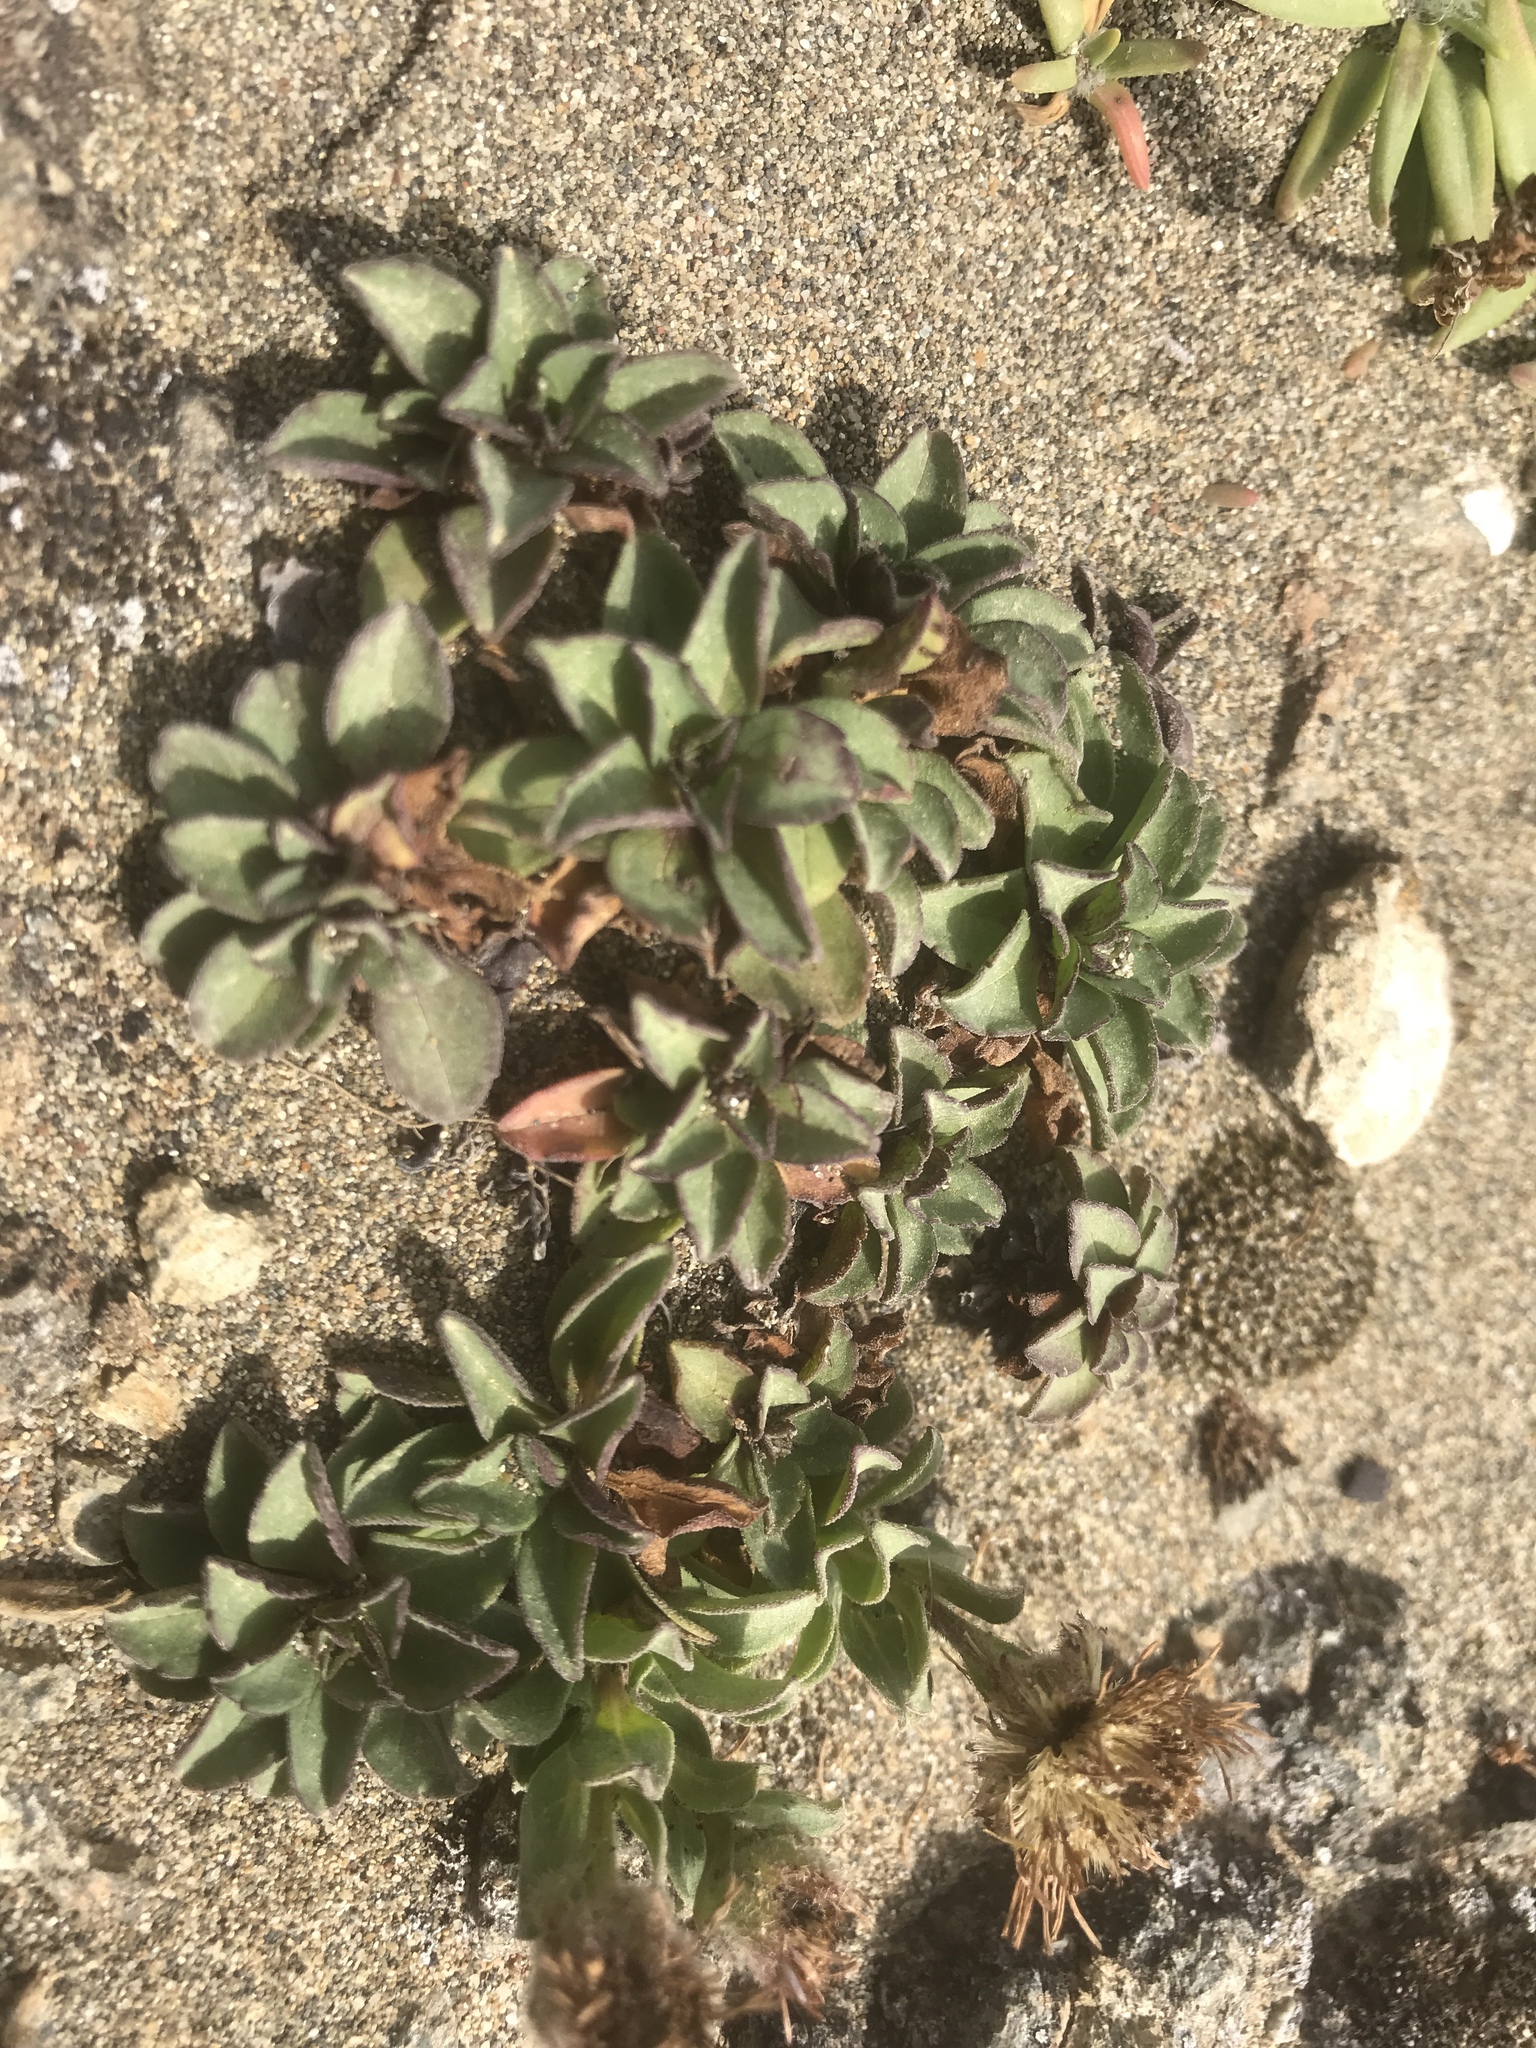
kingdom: Plantae
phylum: Tracheophyta
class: Magnoliopsida
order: Asterales
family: Asteraceae
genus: Erigeron
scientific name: Erigeron glaucus
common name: Seaside daisy
